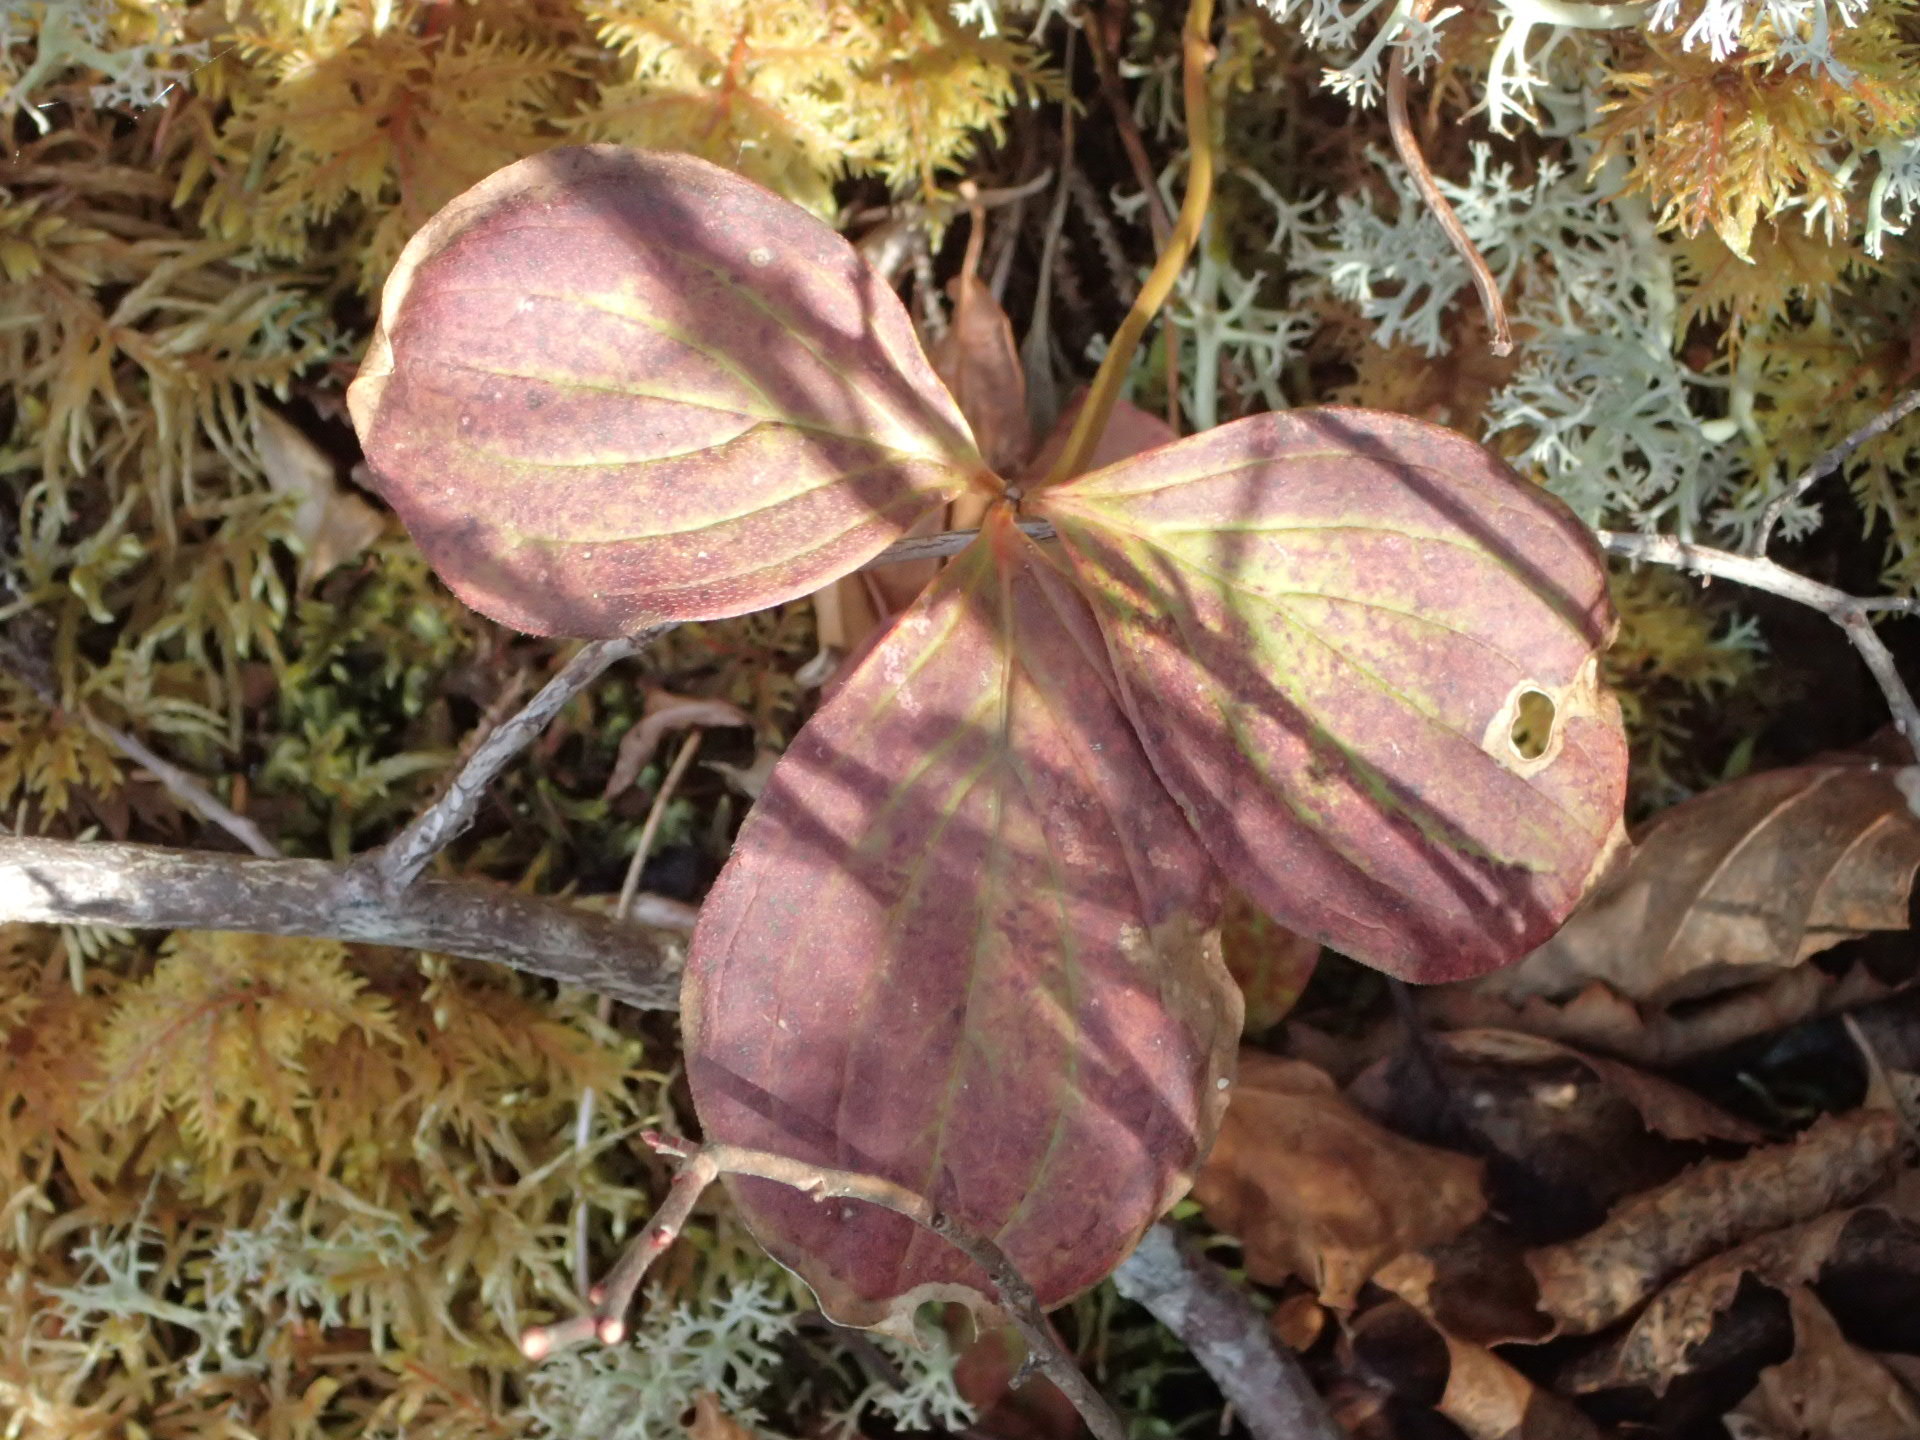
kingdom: Plantae
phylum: Tracheophyta
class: Magnoliopsida
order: Cornales
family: Cornaceae
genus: Cornus
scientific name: Cornus canadensis
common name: Creeping dogwood
